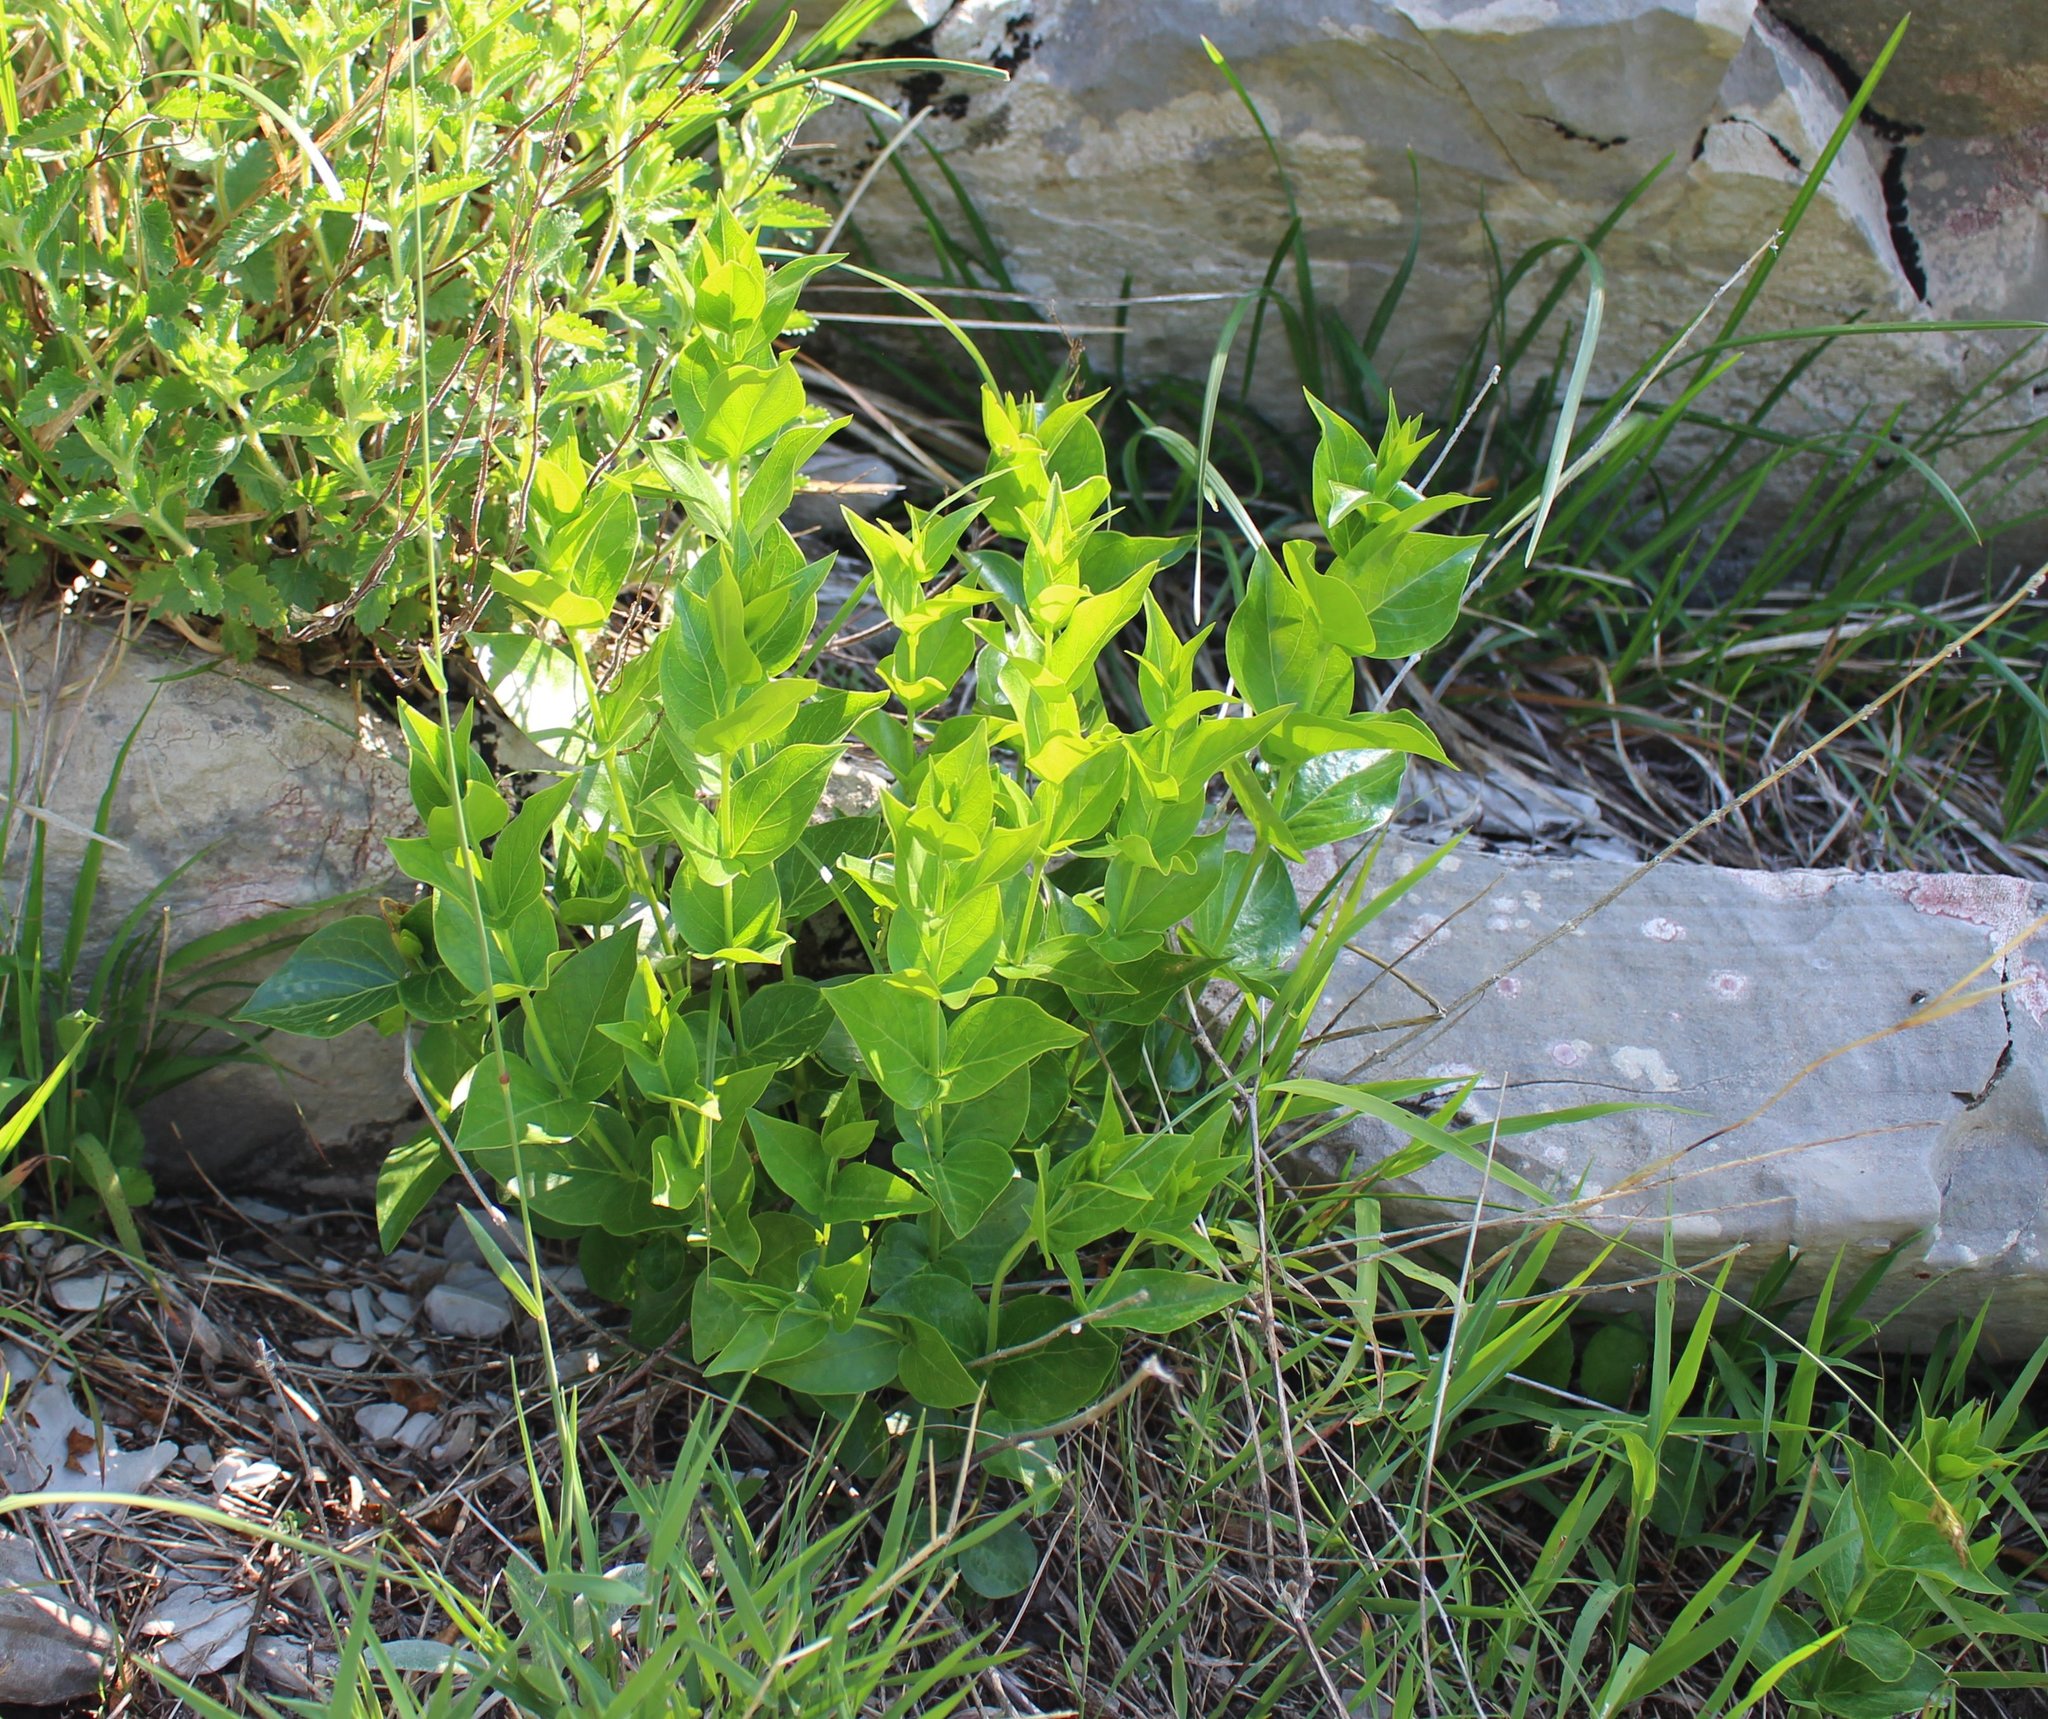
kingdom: Plantae
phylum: Tracheophyta
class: Magnoliopsida
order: Gentianales
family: Apocynaceae
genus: Vincetoxicum
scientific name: Vincetoxicum hirundinaria
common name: White swallowwort
